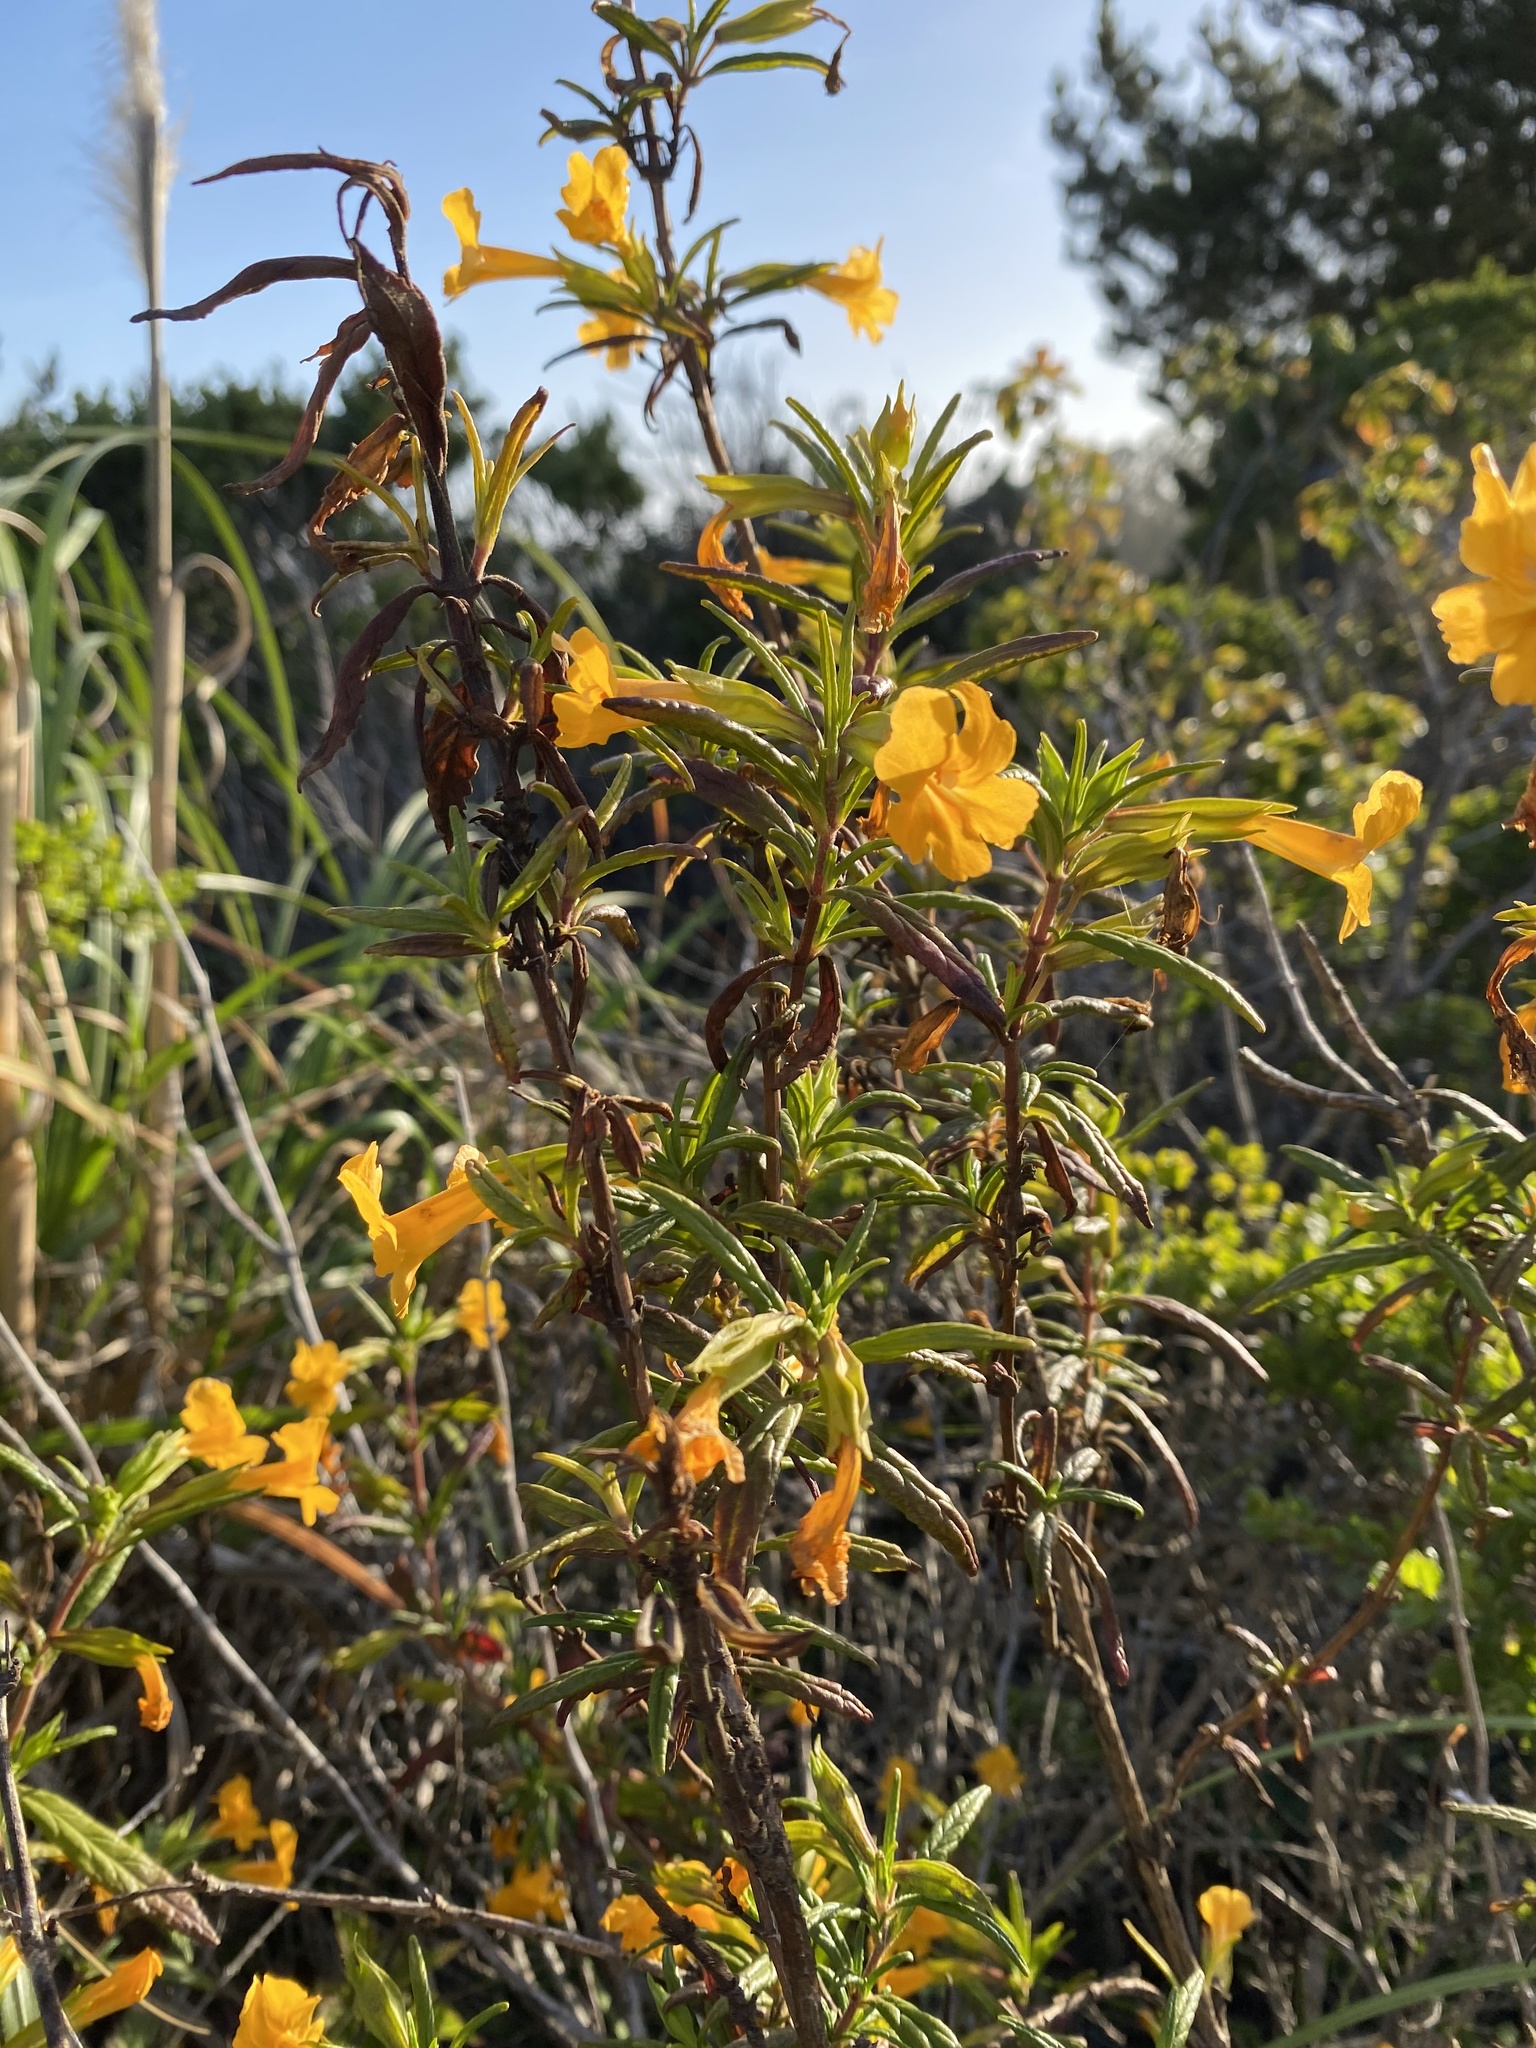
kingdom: Plantae
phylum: Tracheophyta
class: Magnoliopsida
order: Lamiales
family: Phrymaceae
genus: Diplacus
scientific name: Diplacus aurantiacus
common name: Bush monkey-flower
